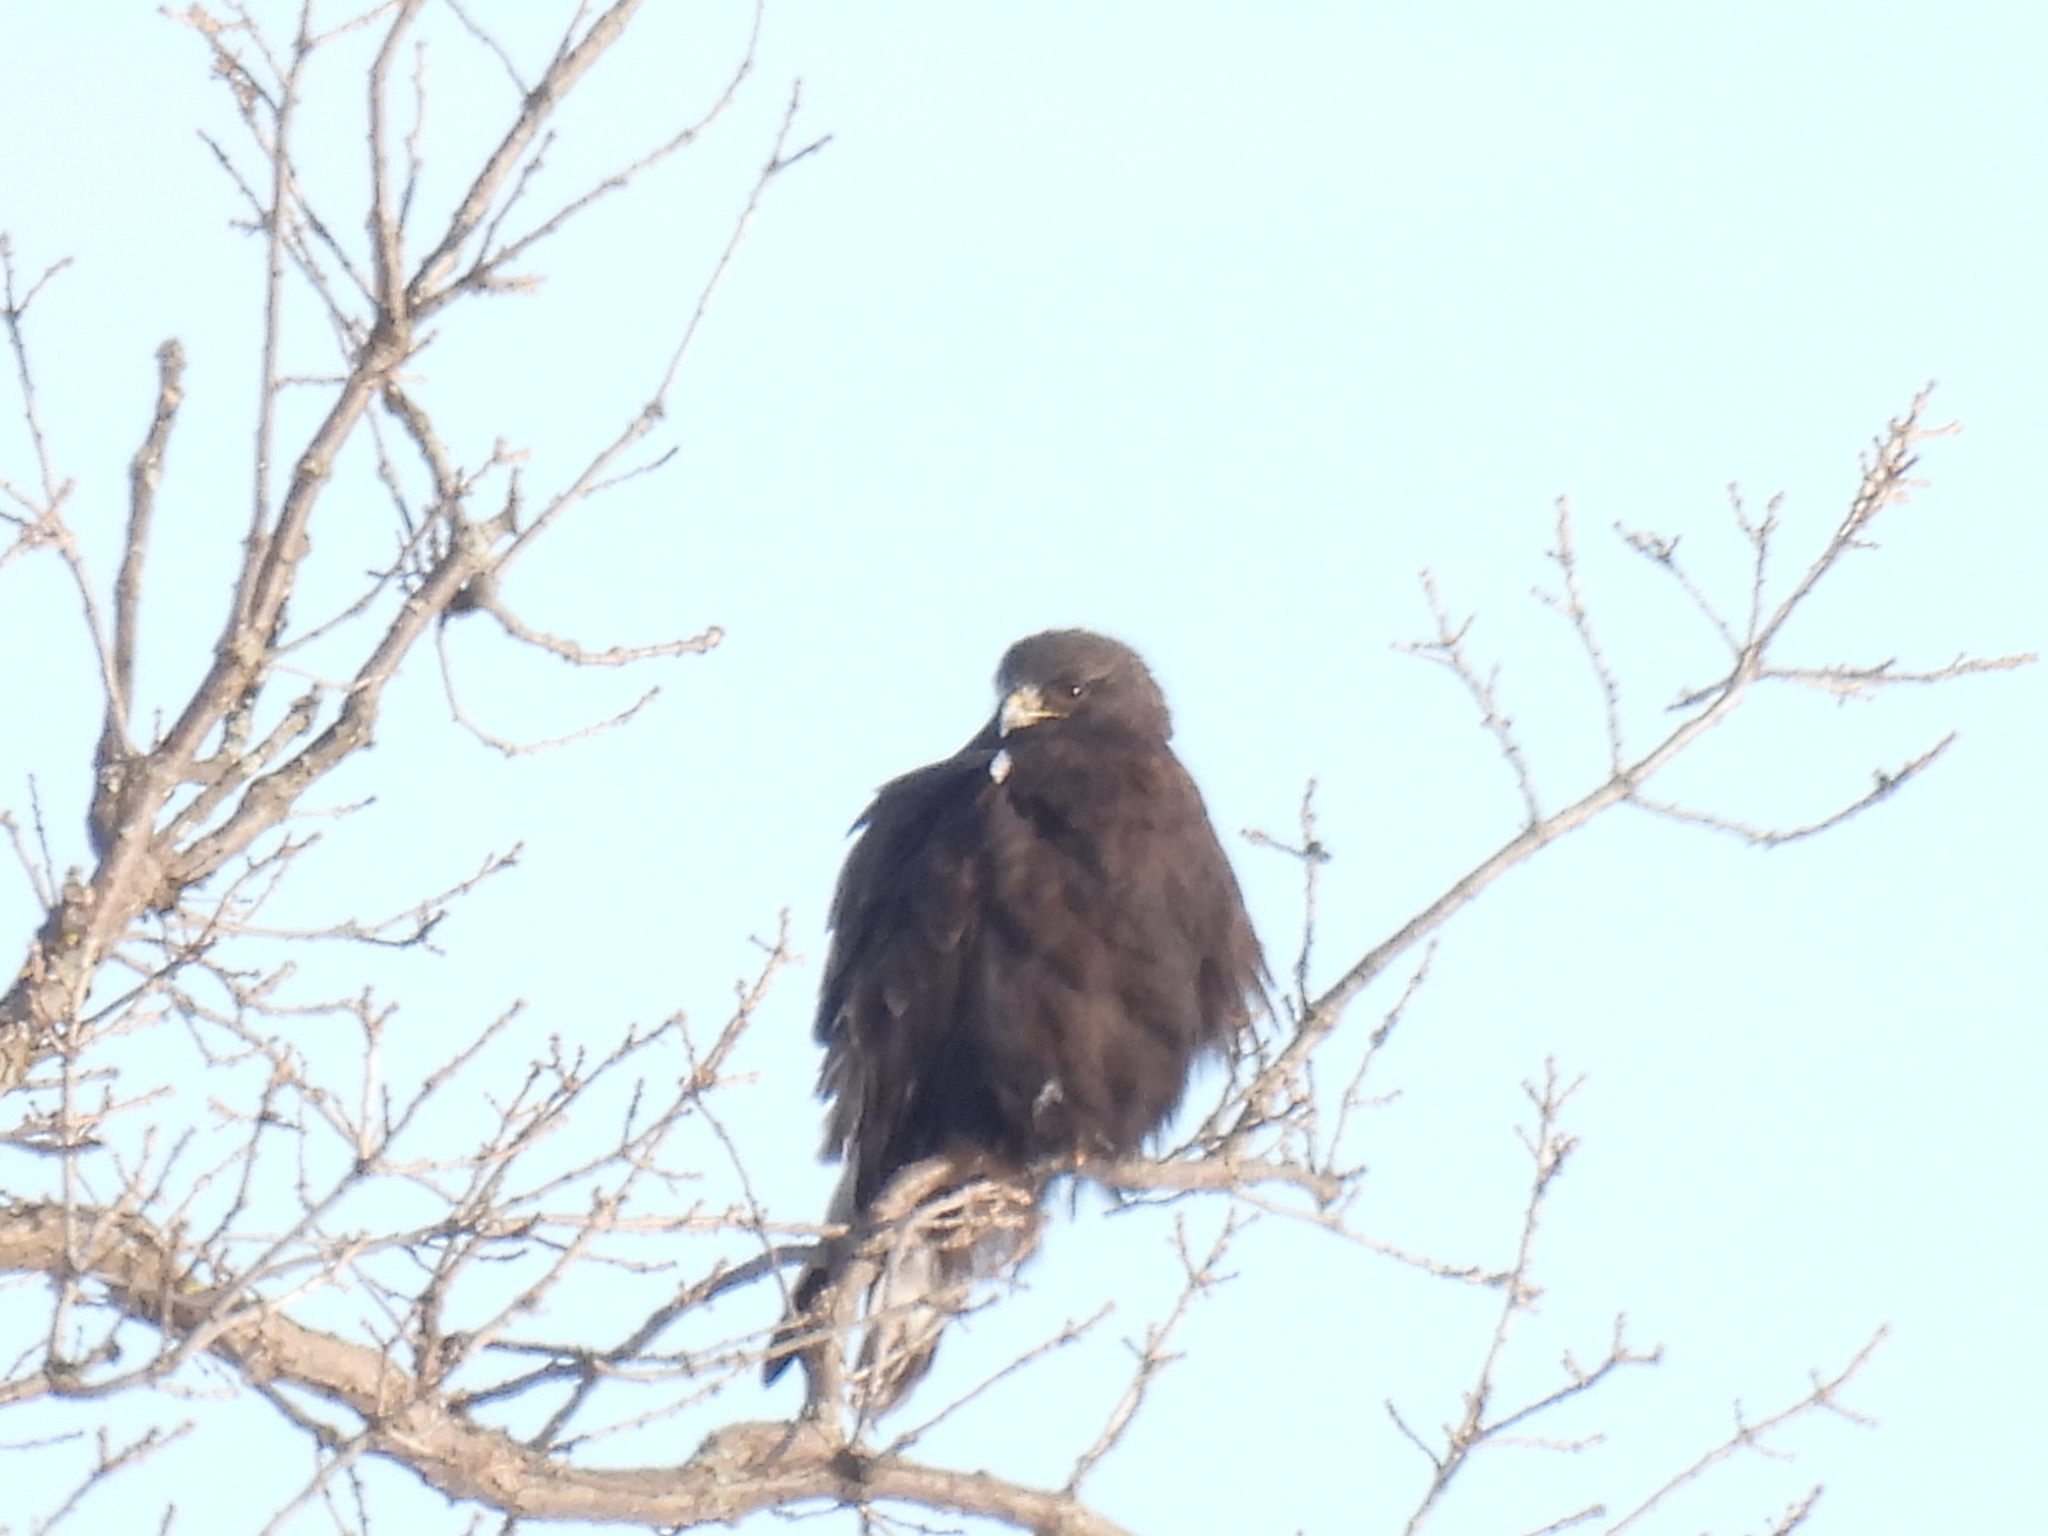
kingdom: Animalia
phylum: Chordata
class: Aves
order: Accipitriformes
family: Accipitridae
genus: Buteo
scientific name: Buteo lagopus
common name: Rough-legged buzzard
